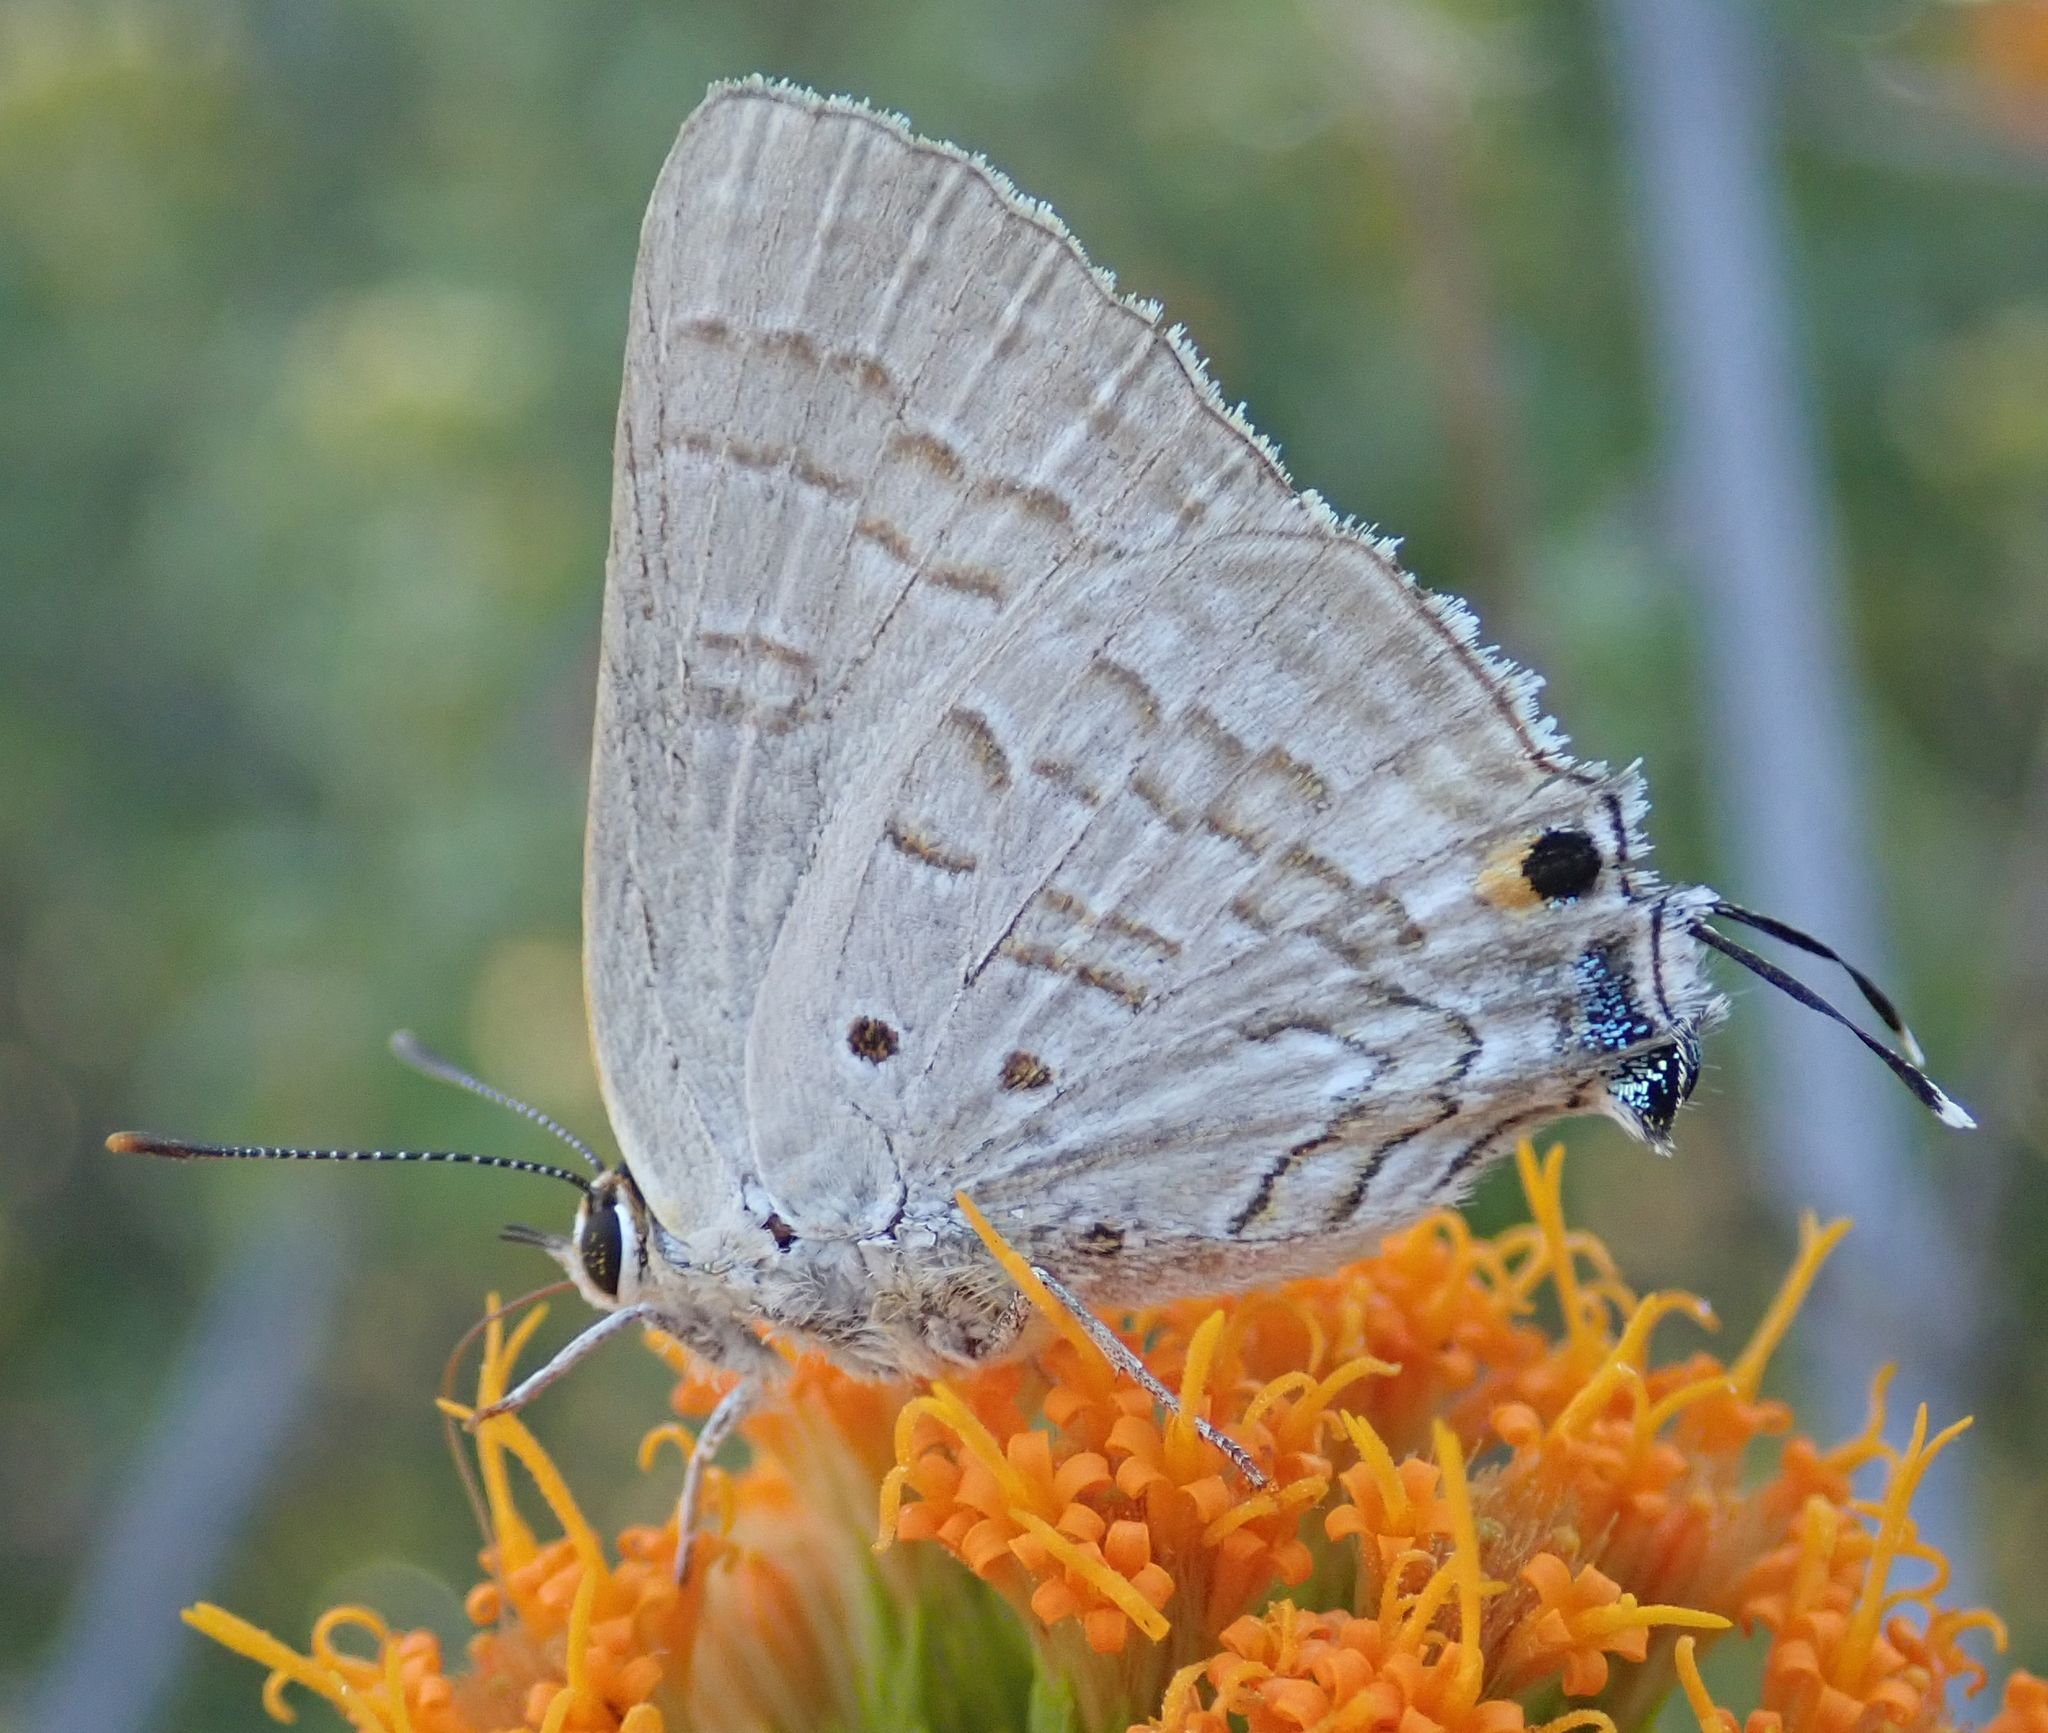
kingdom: Animalia
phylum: Arthropoda
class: Insecta
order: Lepidoptera
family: Lycaenidae
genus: Deudorix
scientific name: Deudorix antalus
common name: Brown playboy
